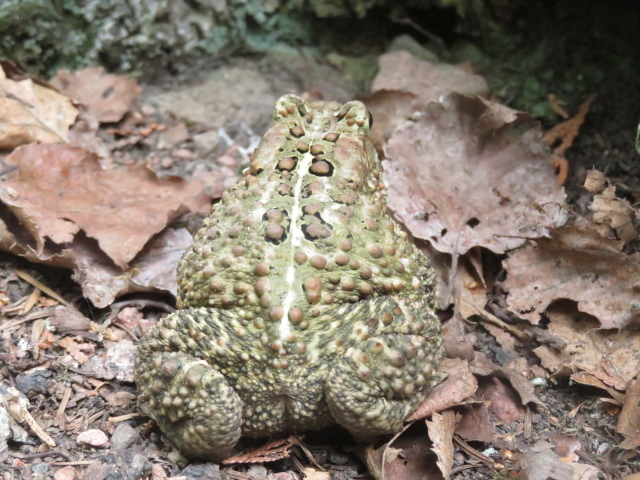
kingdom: Animalia
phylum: Chordata
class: Amphibia
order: Anura
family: Bufonidae
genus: Anaxyrus
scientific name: Anaxyrus americanus
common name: American toad
